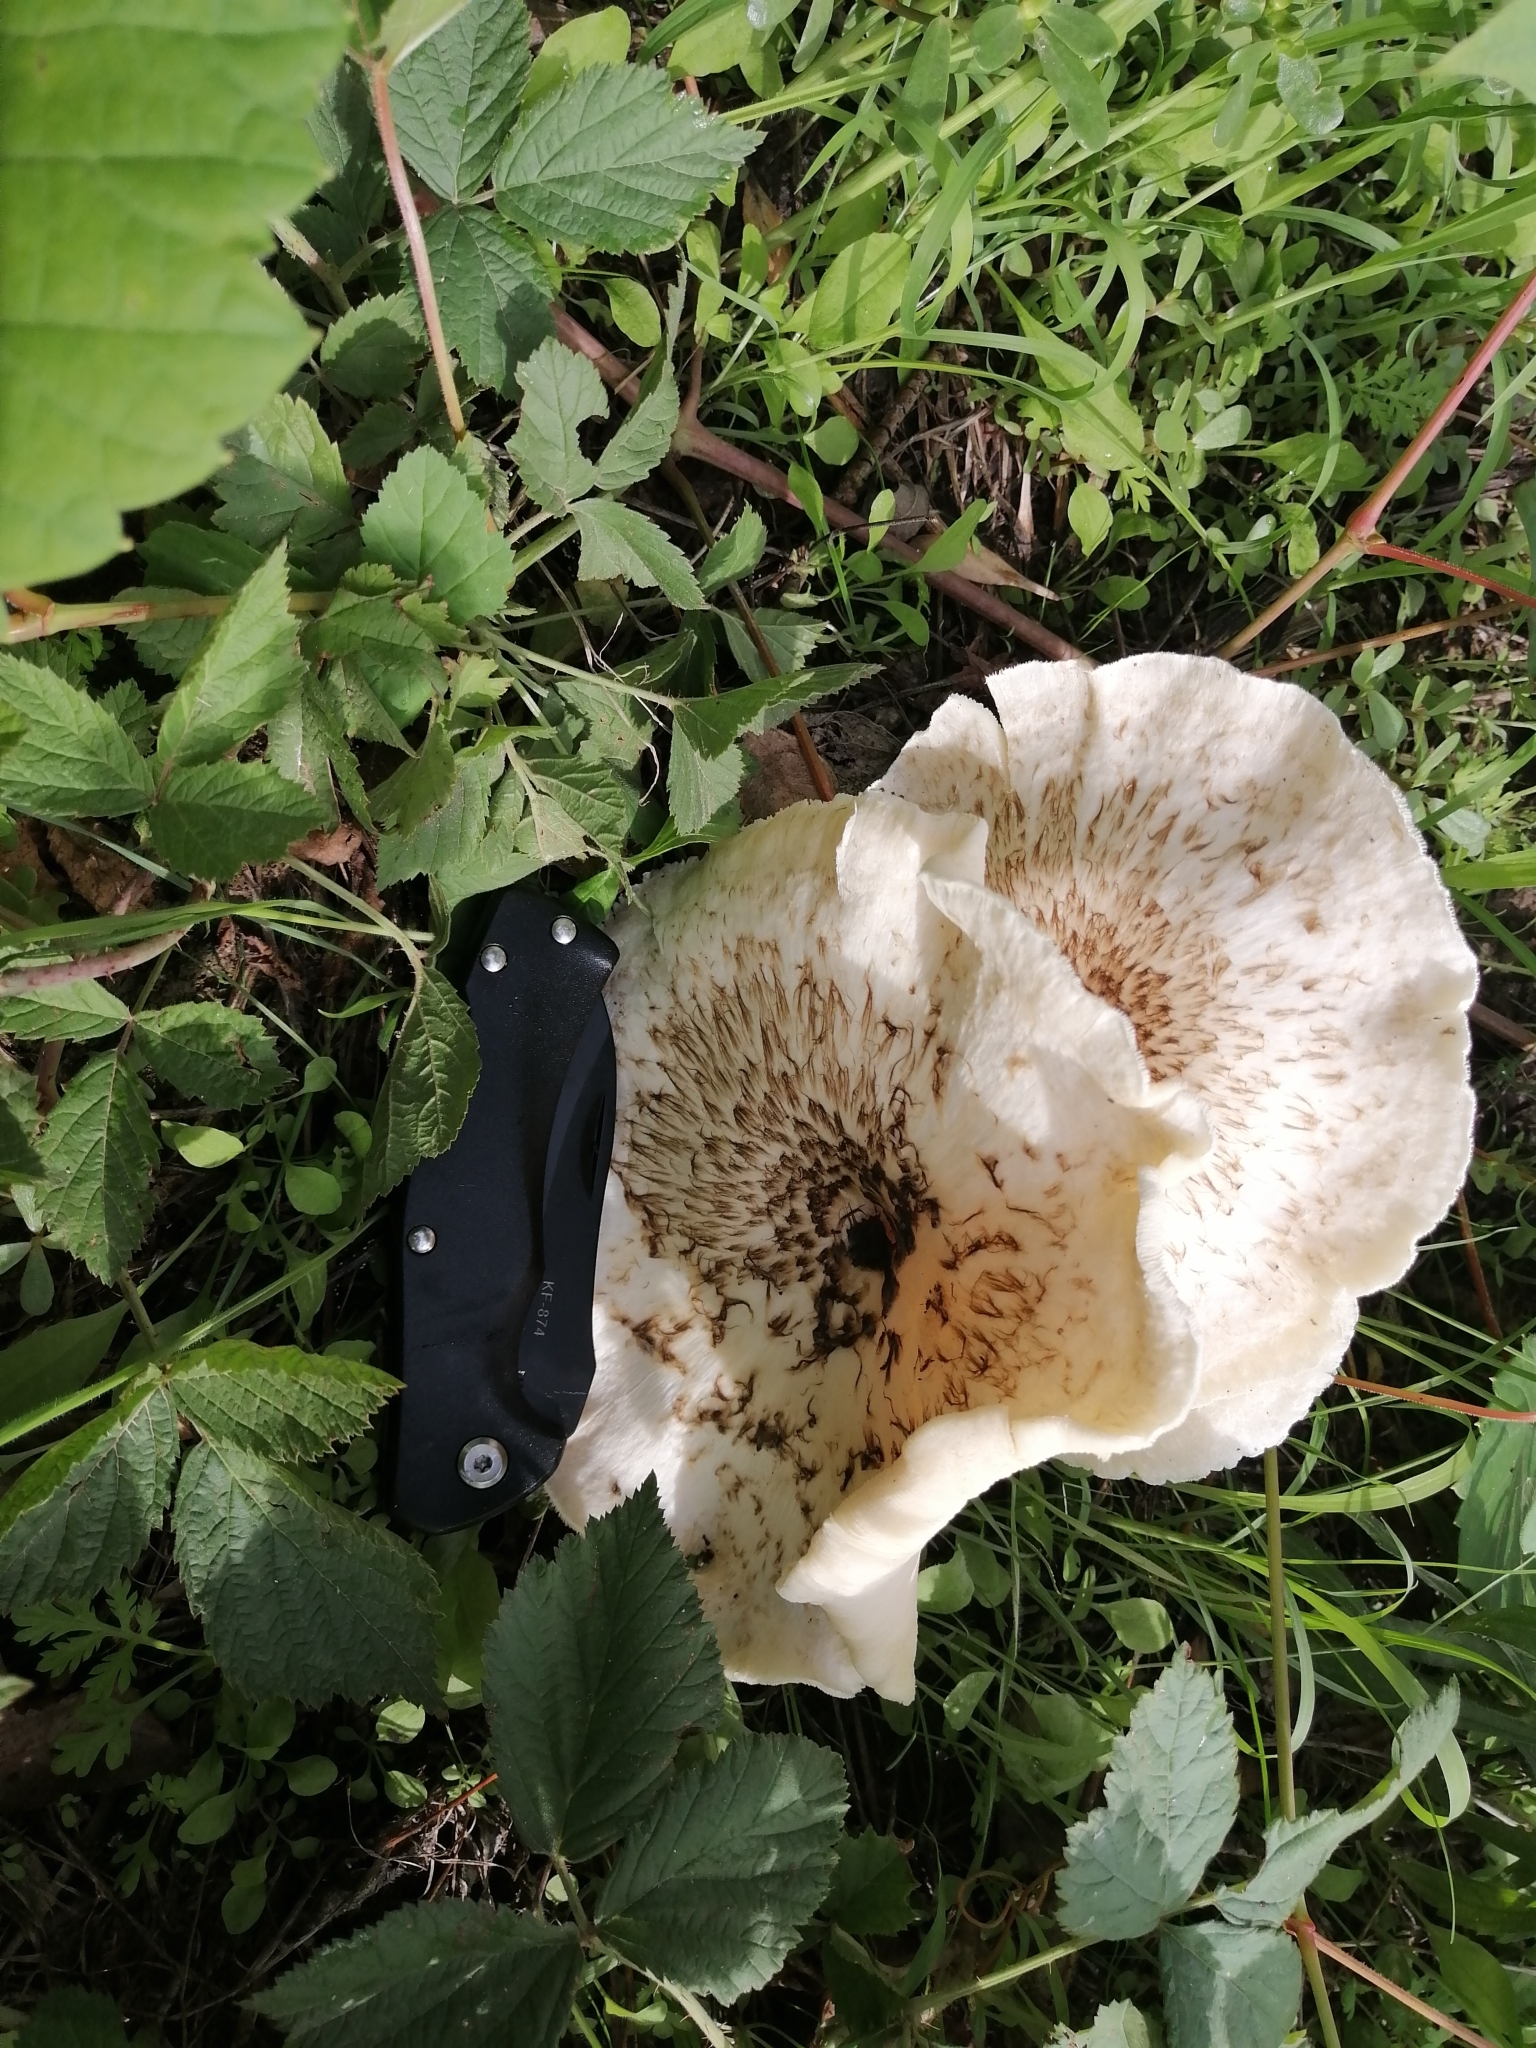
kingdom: Fungi
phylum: Basidiomycota
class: Agaricomycetes
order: Polyporales
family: Polyporaceae
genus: Lentinus
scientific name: Lentinus tigrinus
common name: Tiger sawgill
